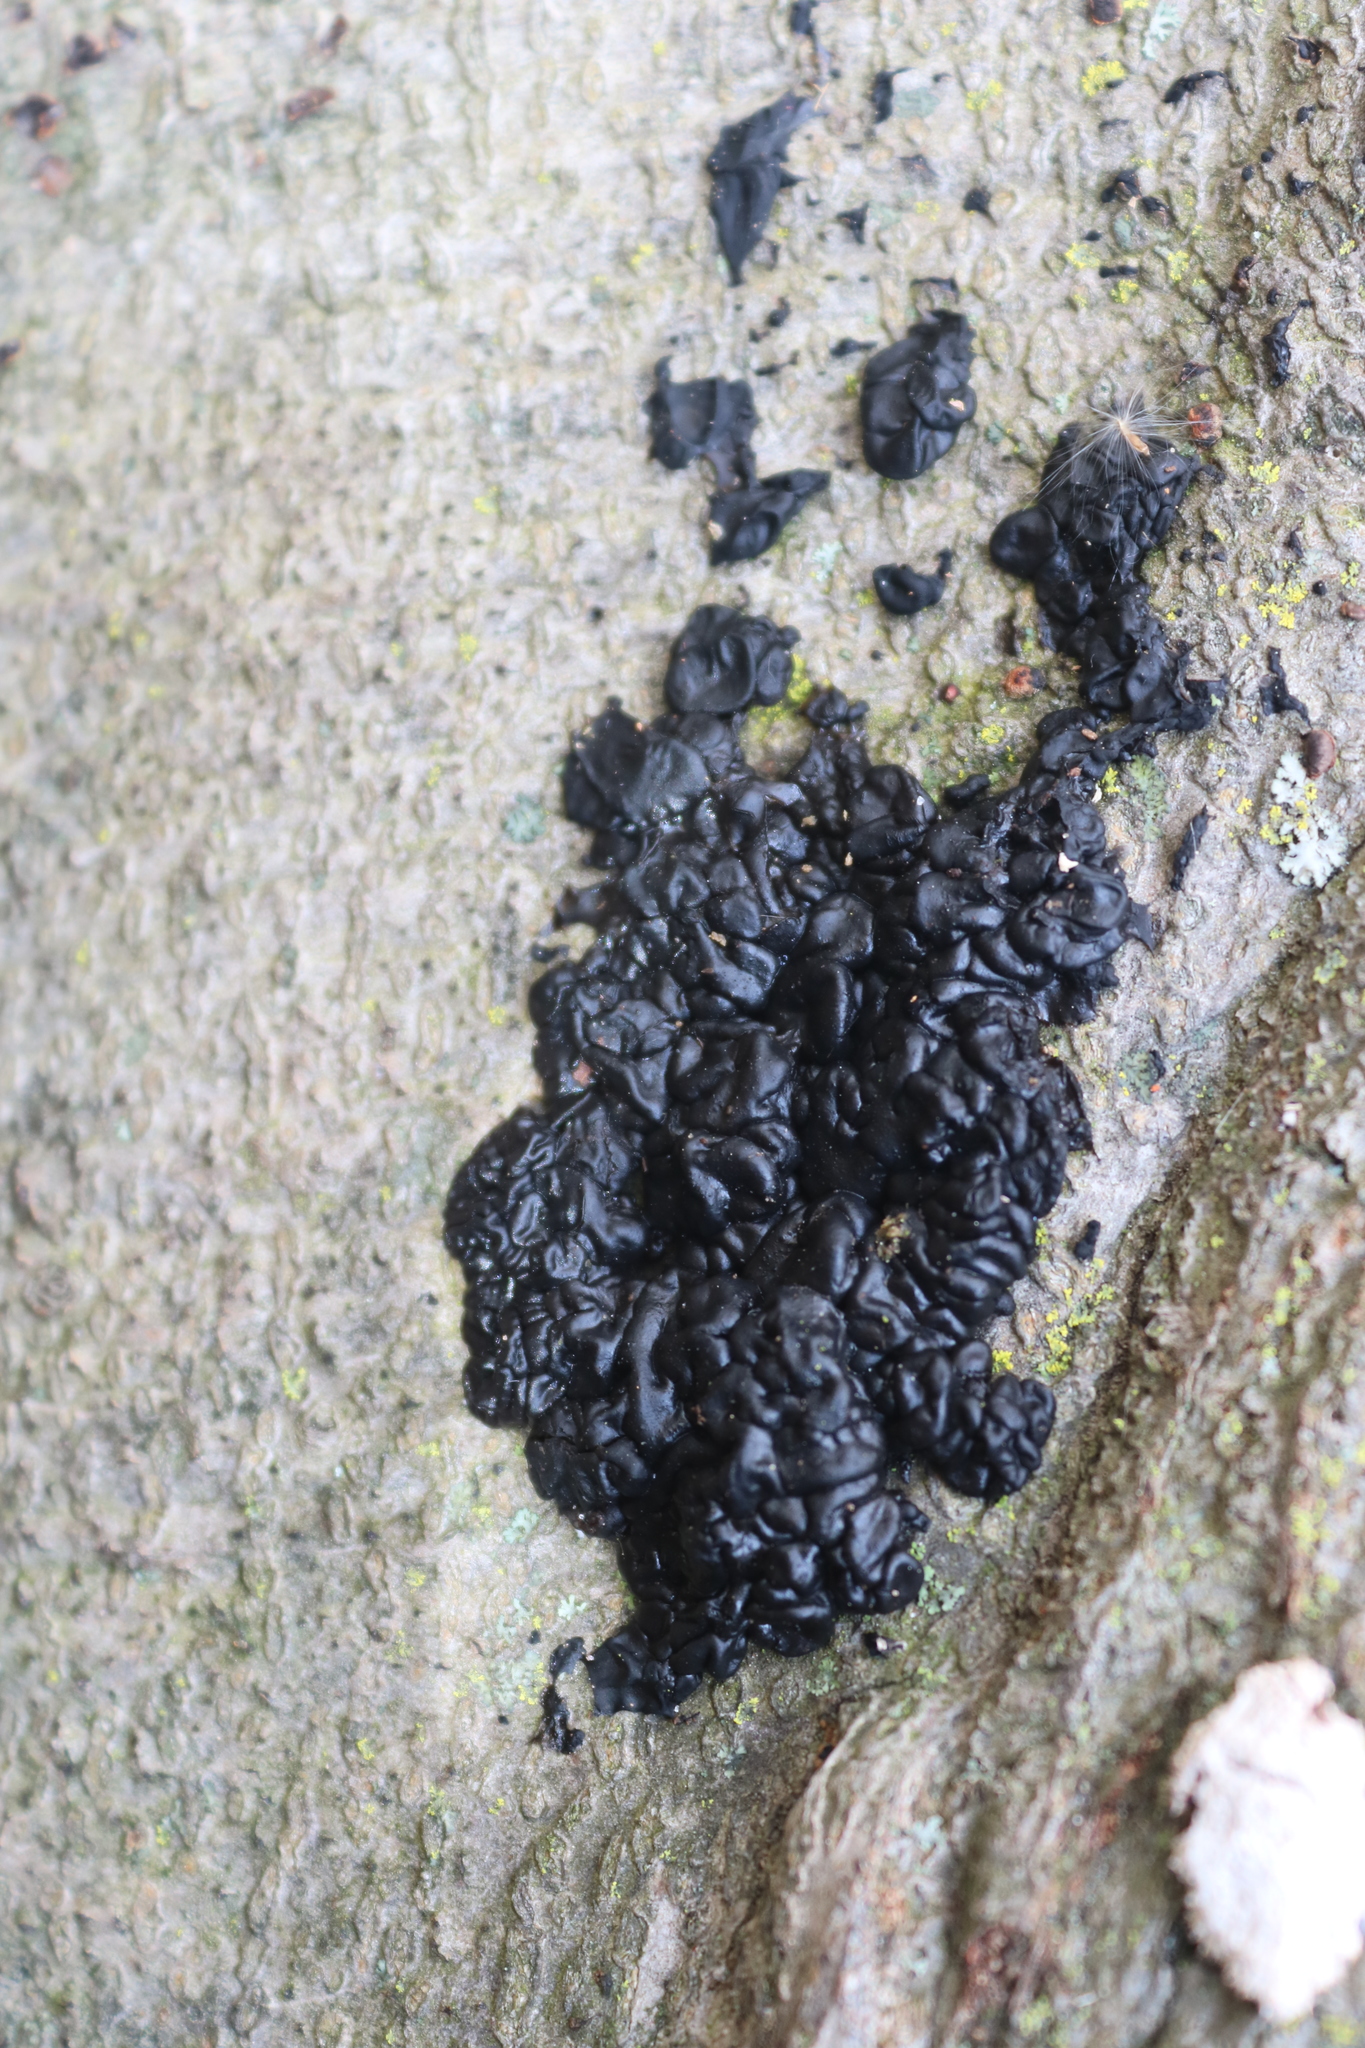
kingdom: Fungi
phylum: Basidiomycota
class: Agaricomycetes
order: Auriculariales
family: Auriculariaceae
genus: Exidia
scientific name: Exidia glandulosa
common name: Witches' butter
